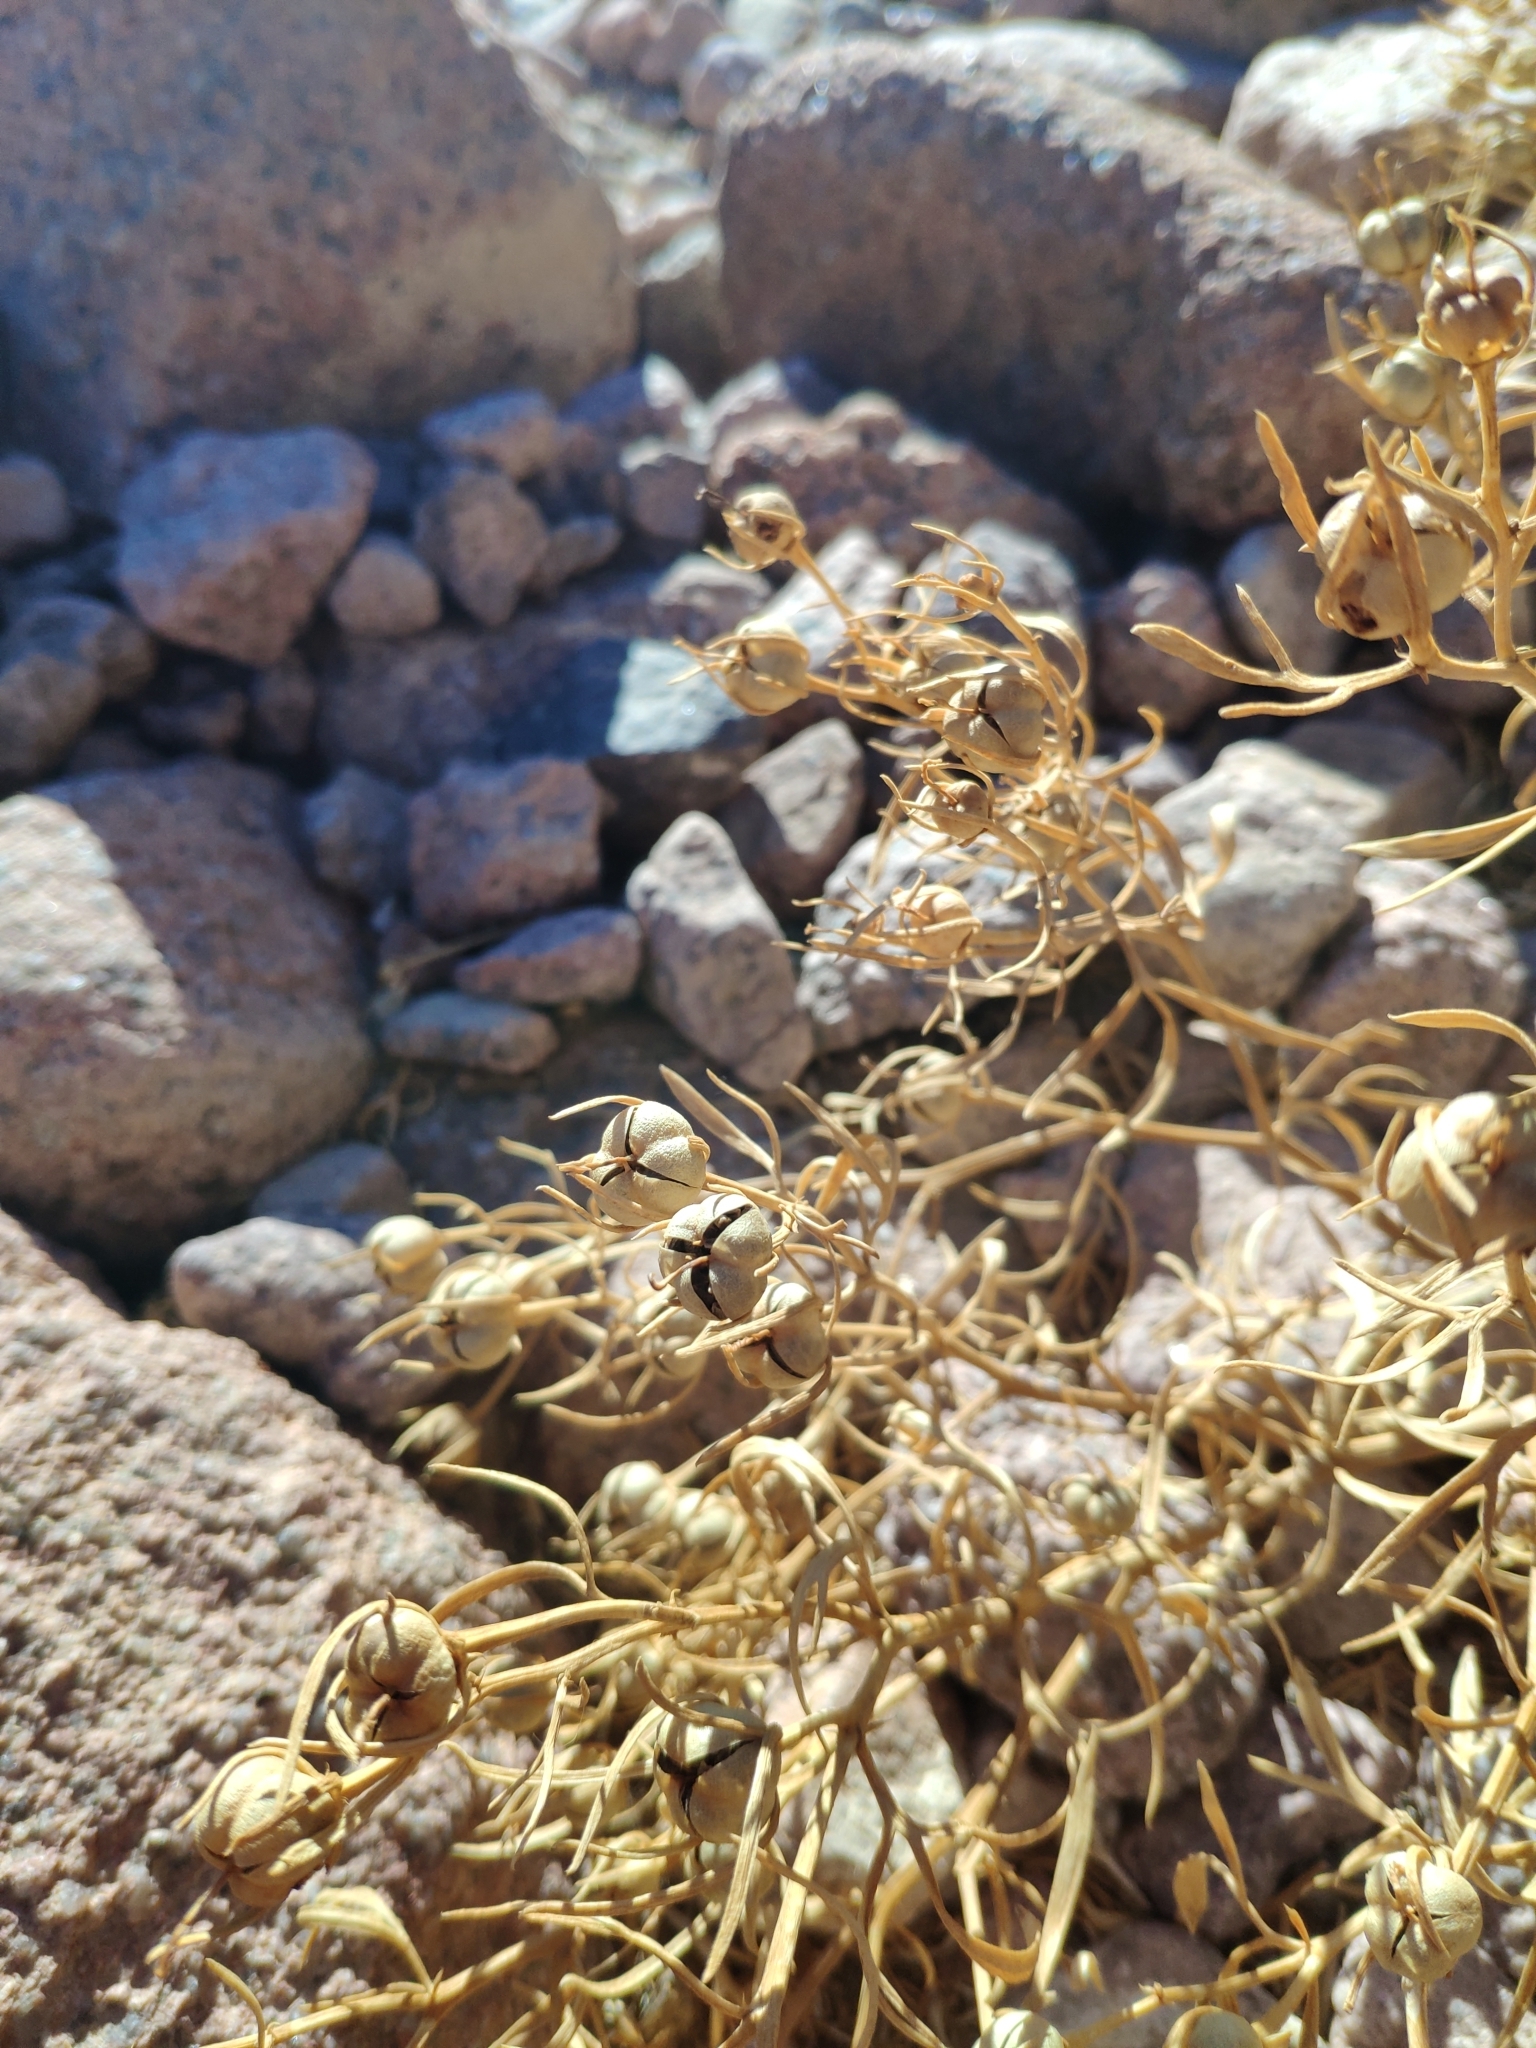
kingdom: Plantae
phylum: Tracheophyta
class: Magnoliopsida
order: Sapindales
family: Tetradiclidaceae
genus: Peganum
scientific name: Peganum harmala
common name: Harmal peganum
